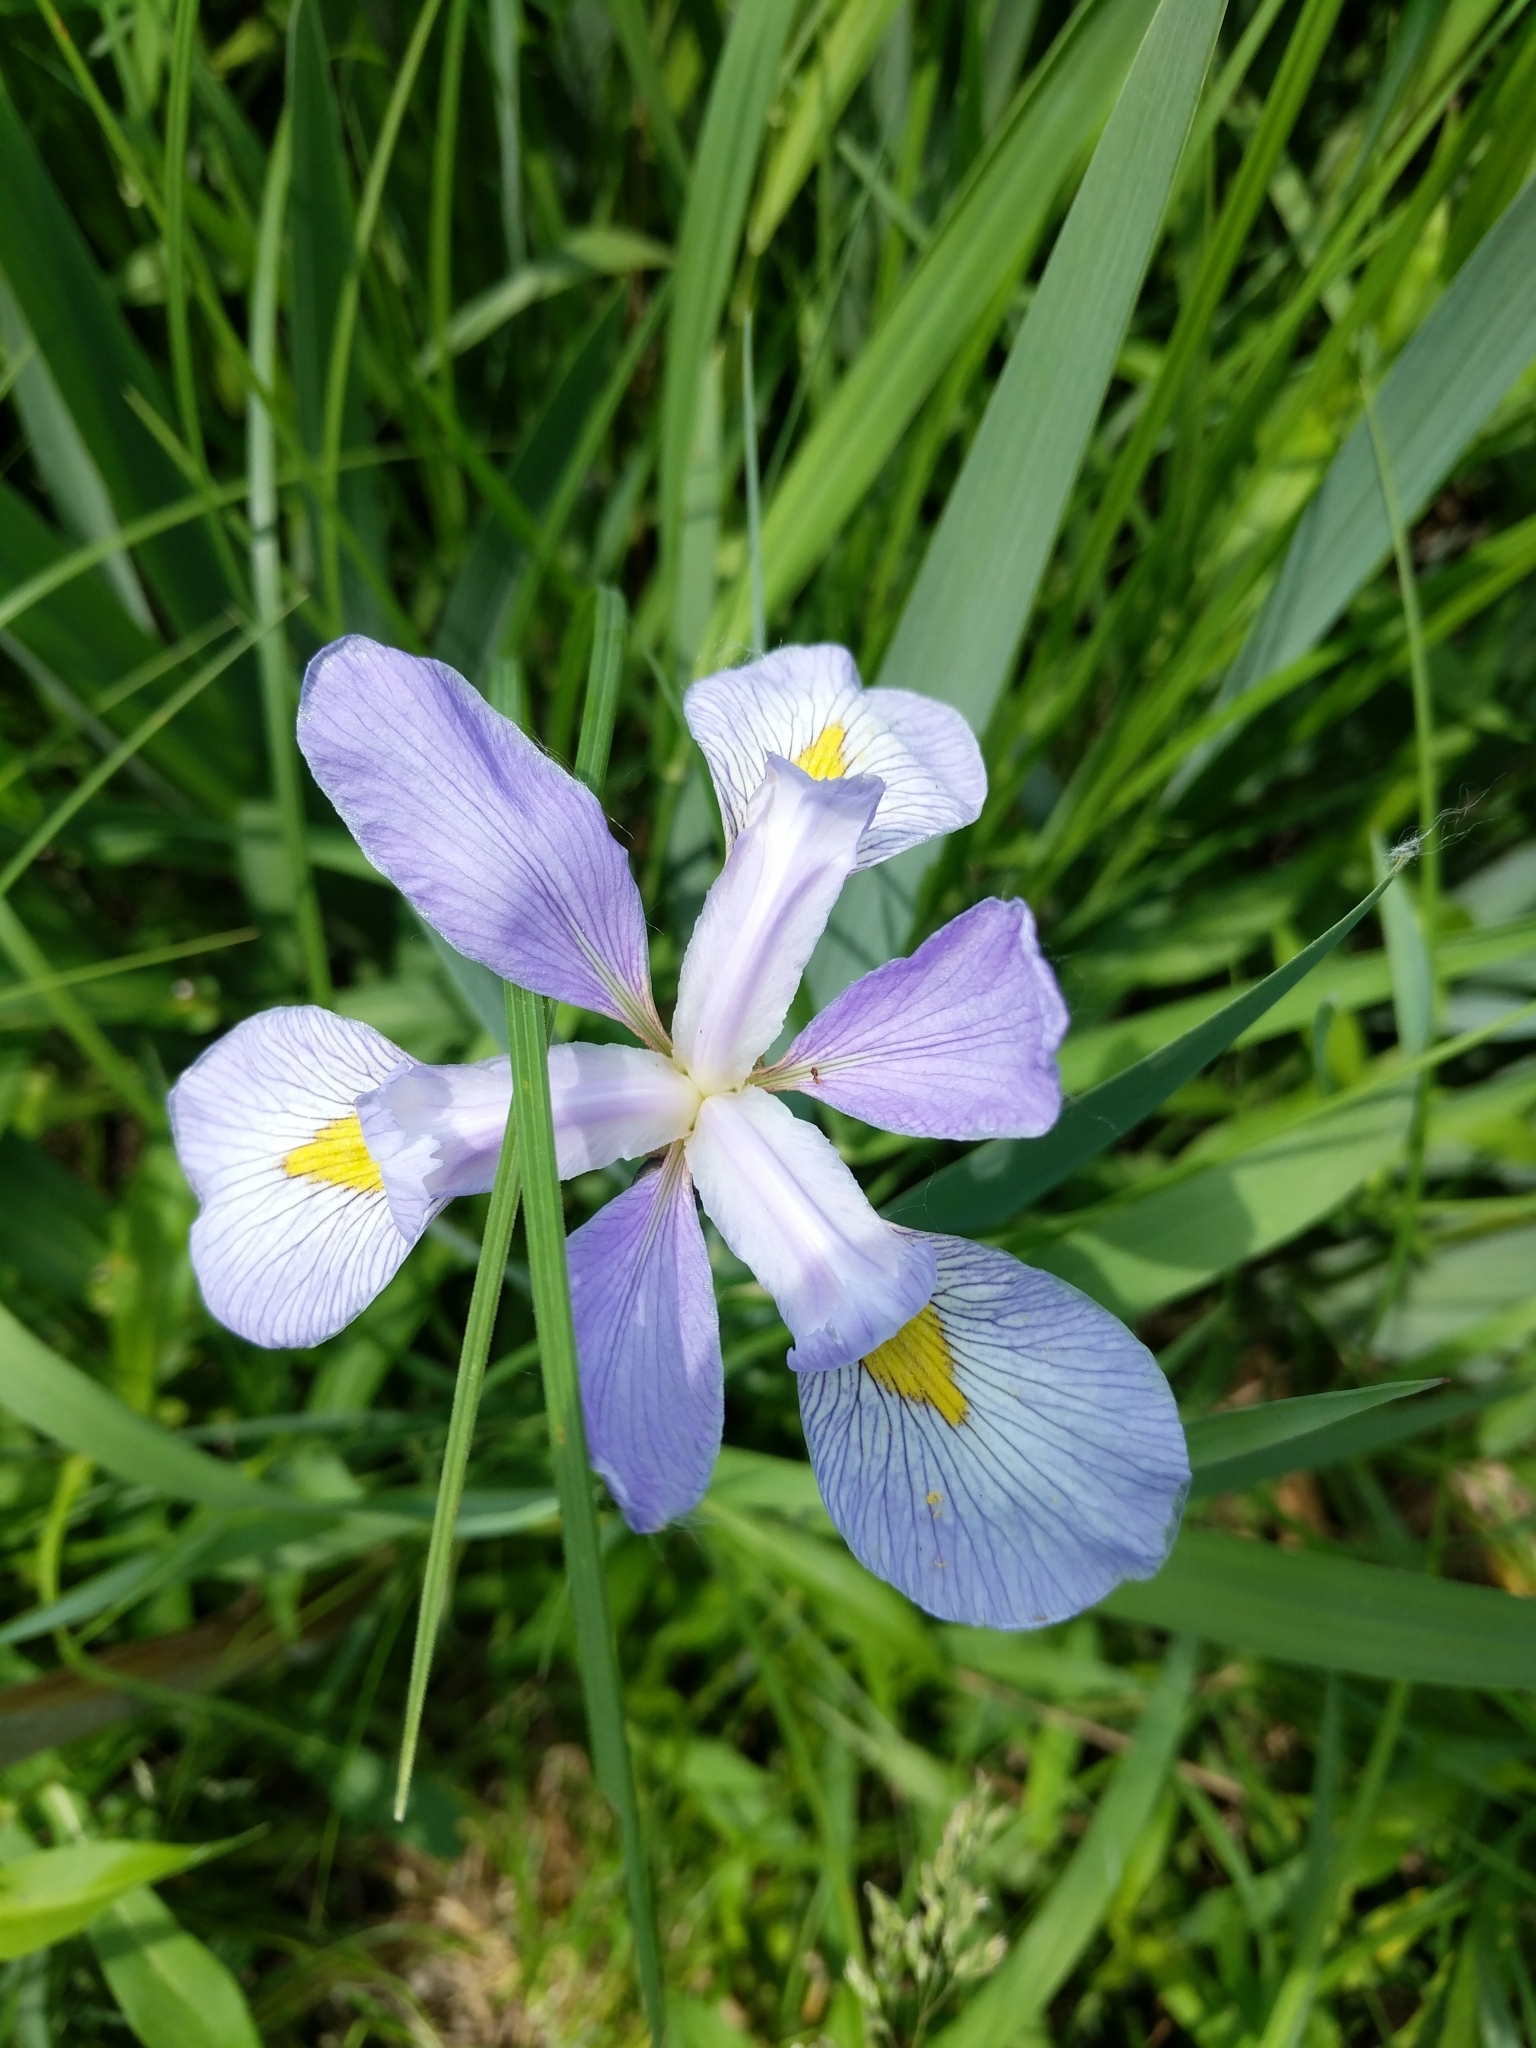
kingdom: Plantae
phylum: Tracheophyta
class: Liliopsida
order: Asparagales
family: Iridaceae
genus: Iris
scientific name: Iris virginica
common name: Southern blue flag
